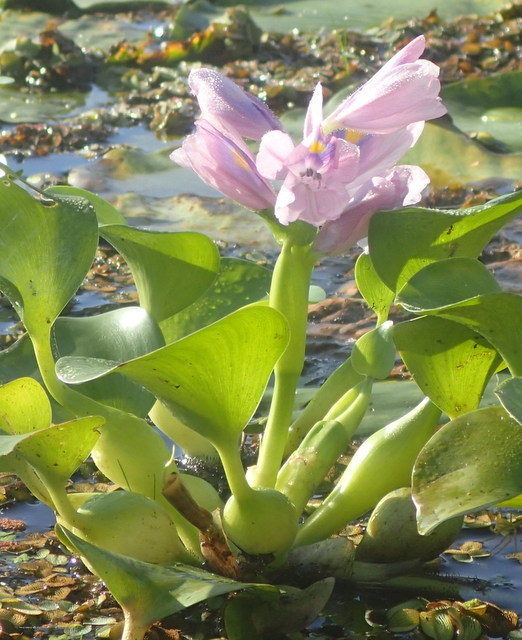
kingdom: Plantae
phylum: Tracheophyta
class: Liliopsida
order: Commelinales
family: Pontederiaceae
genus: Pontederia
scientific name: Pontederia crassipes
